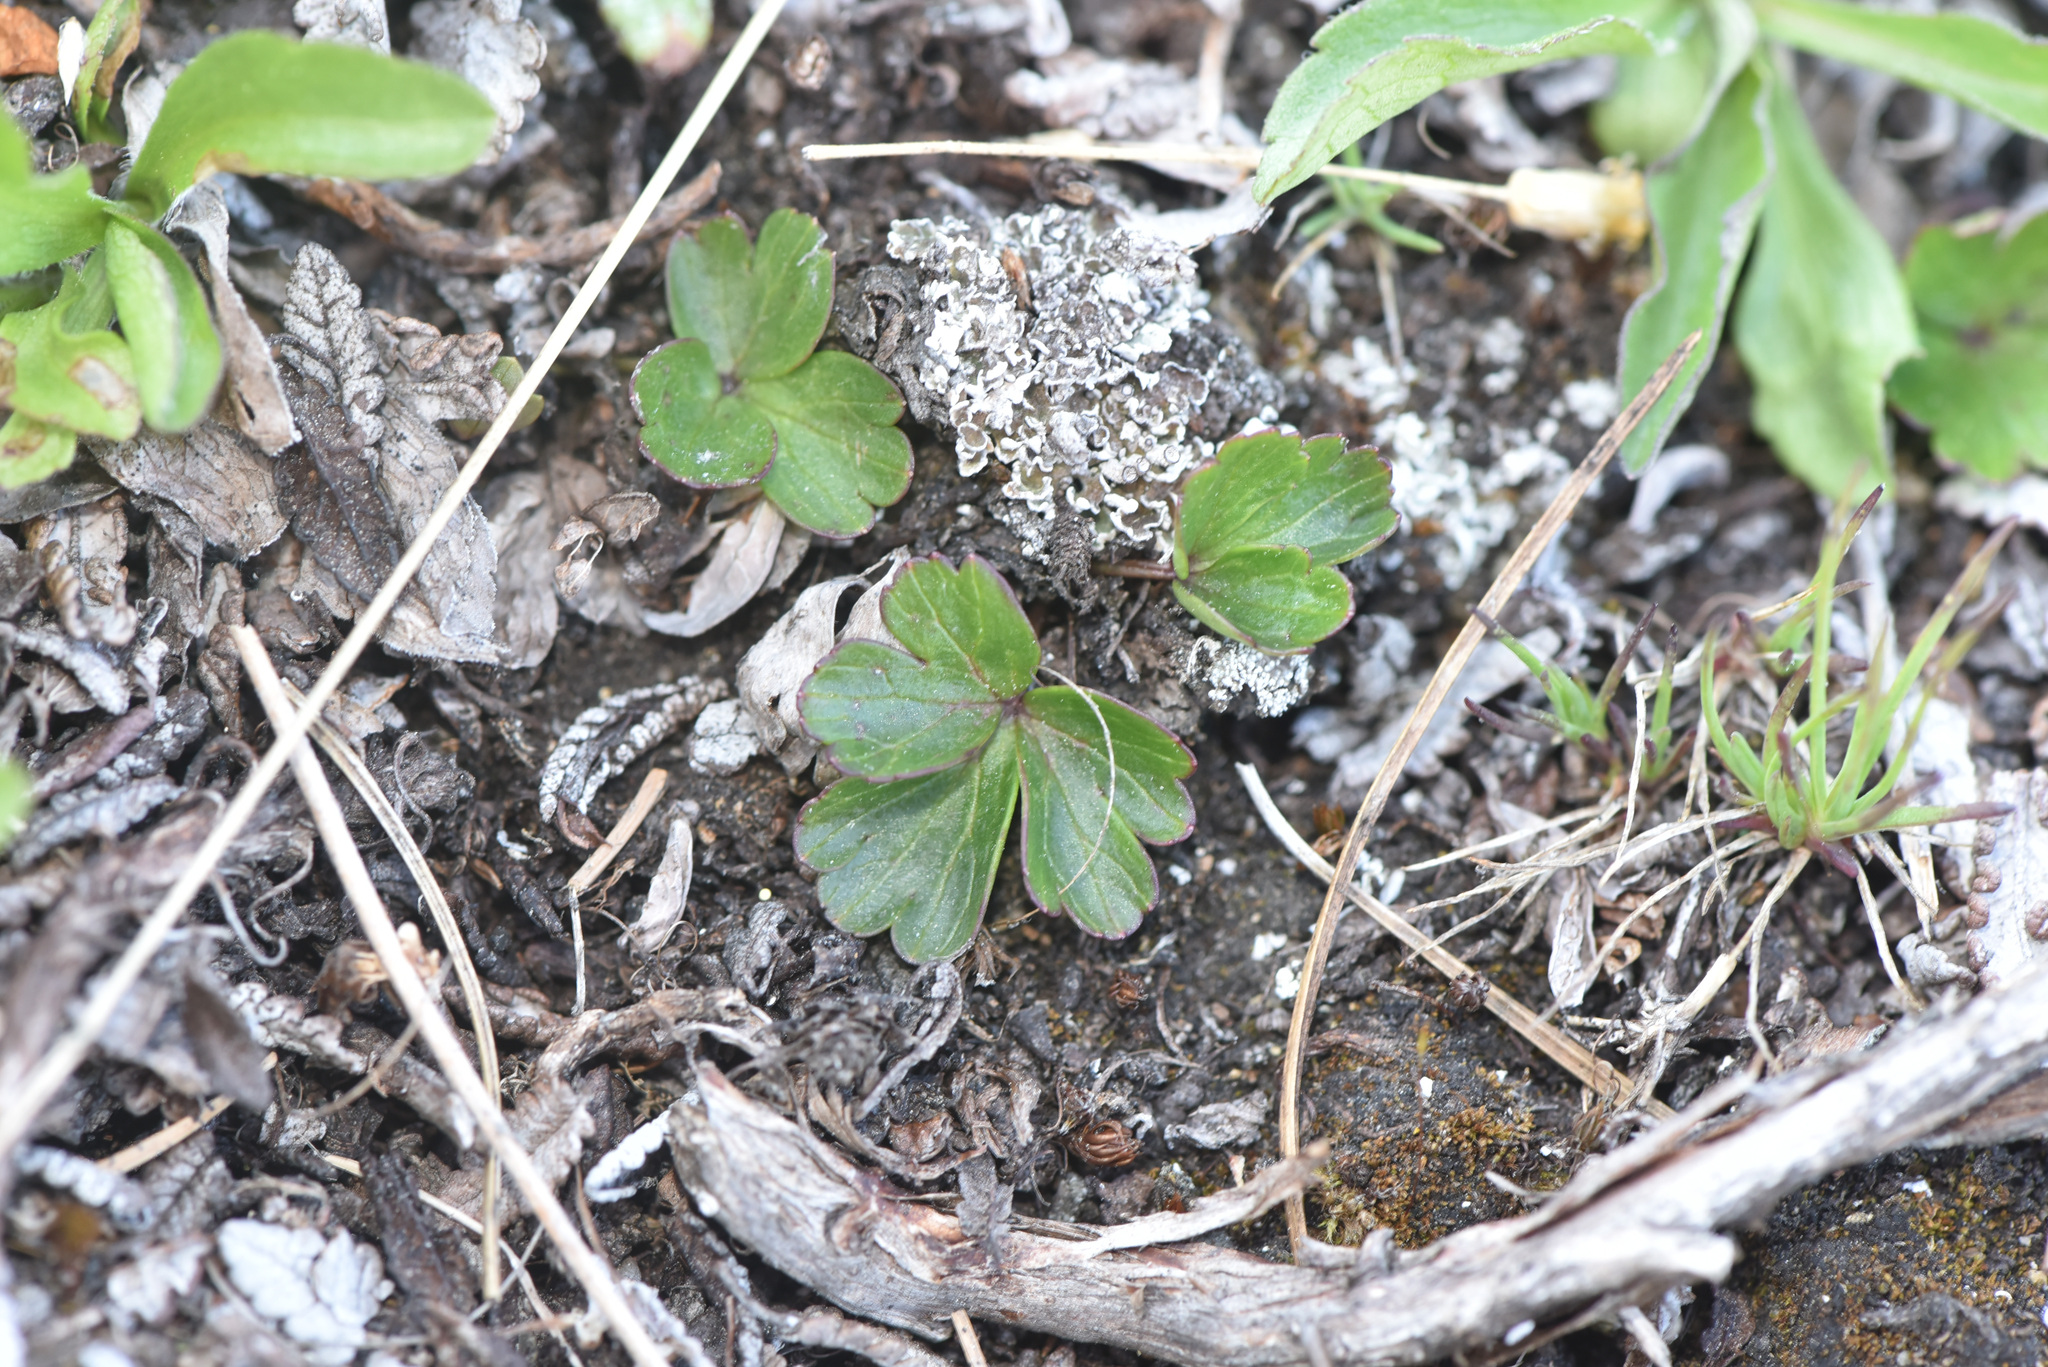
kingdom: Plantae
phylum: Tracheophyta
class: Magnoliopsida
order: Ranunculales
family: Ranunculaceae
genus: Anemone
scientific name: Anemone parviflora
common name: Northern anemone
